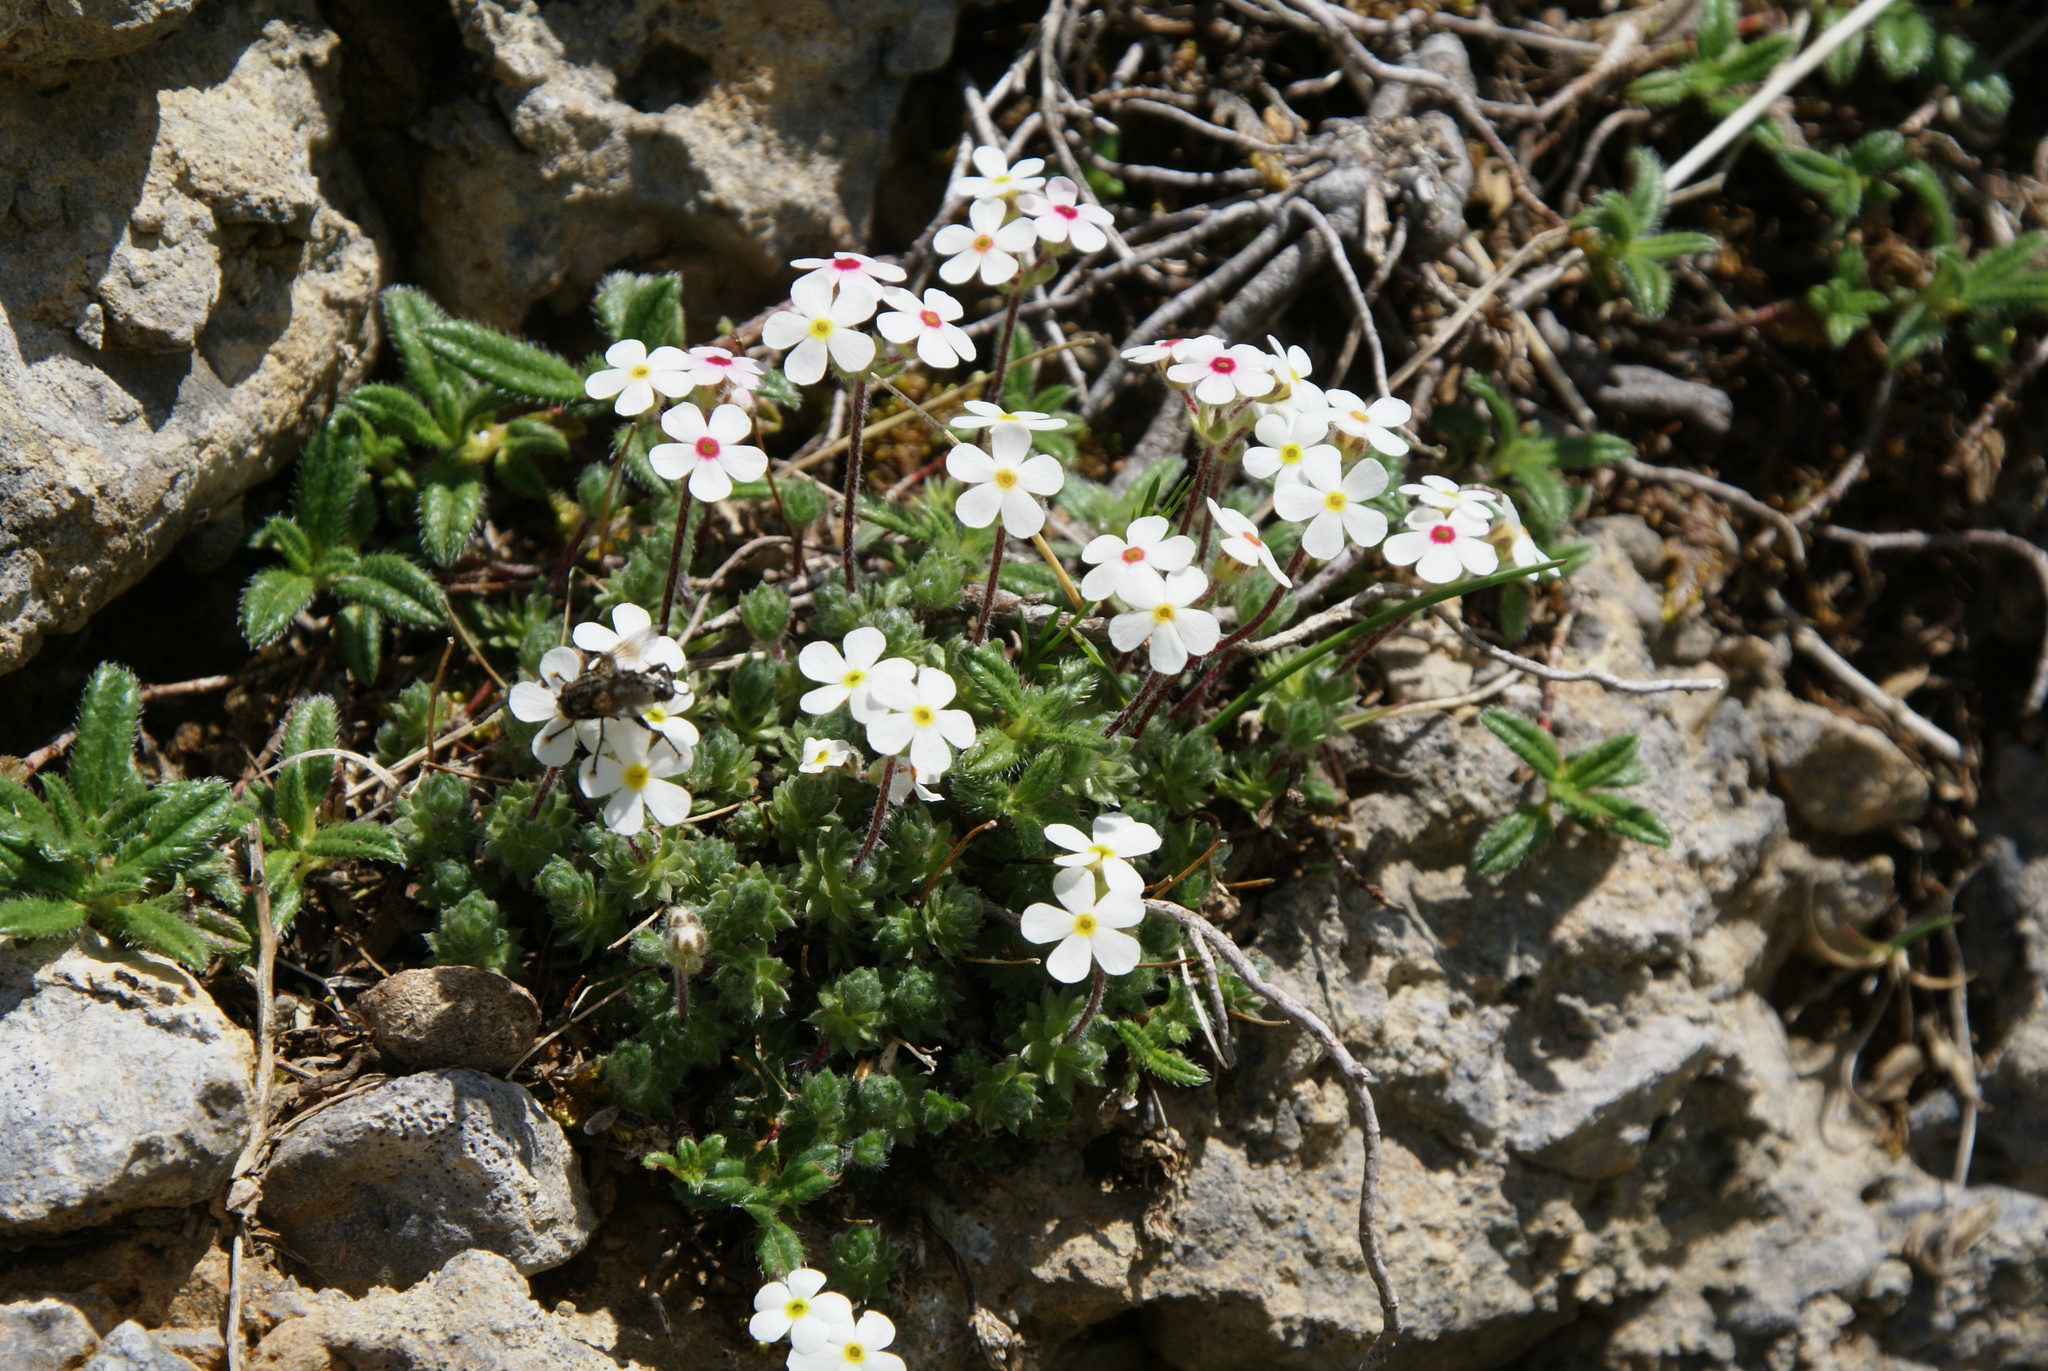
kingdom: Plantae
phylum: Tracheophyta
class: Magnoliopsida
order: Ericales
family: Primulaceae
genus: Androsace
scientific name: Androsace villosa
